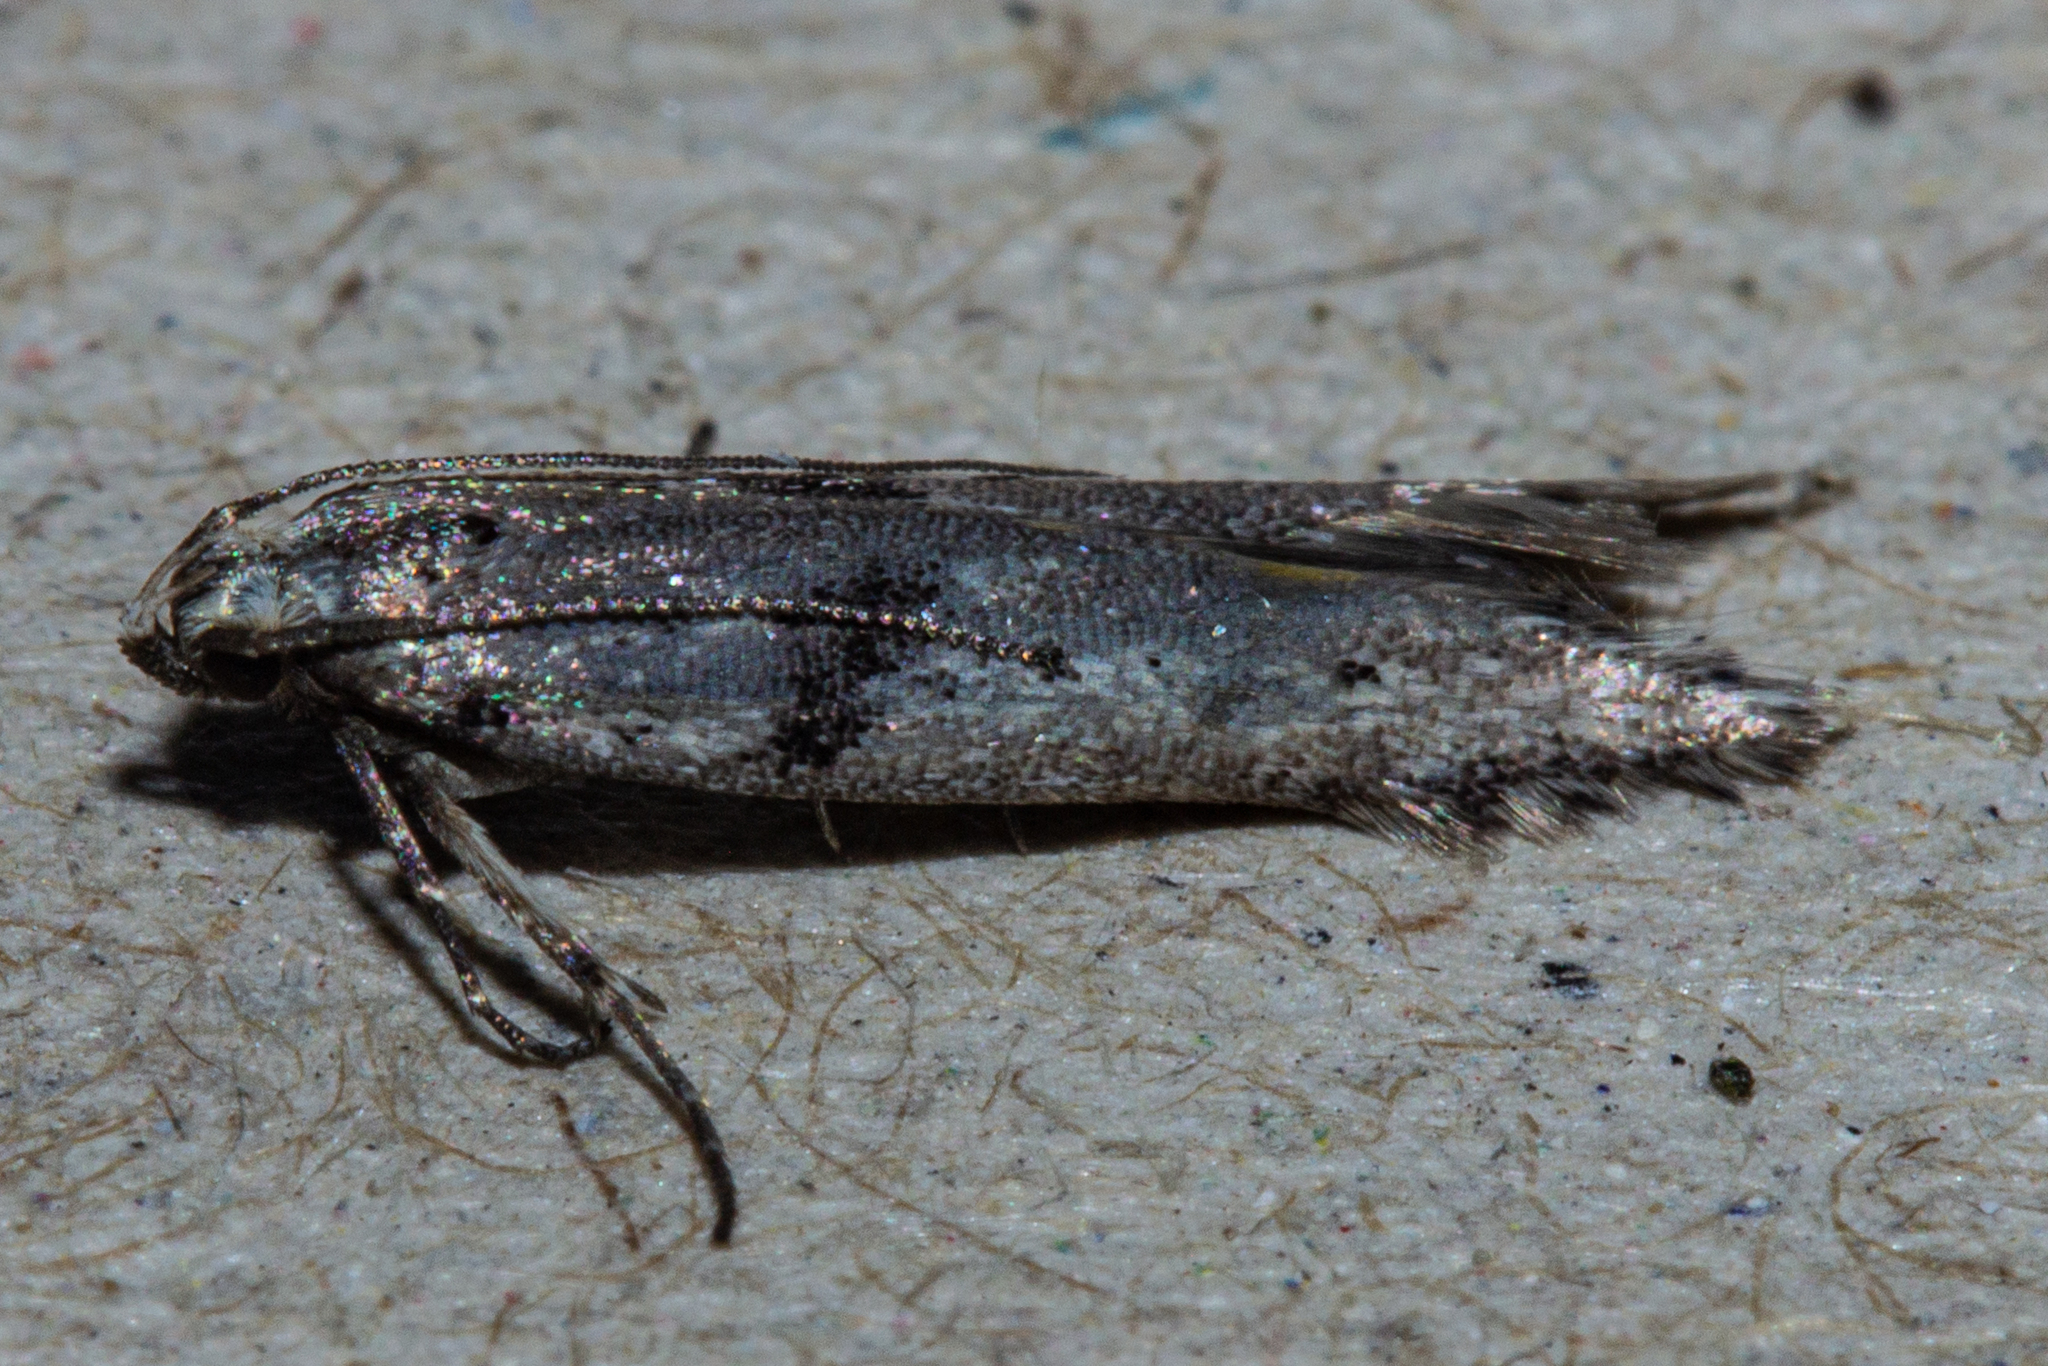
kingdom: Animalia
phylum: Arthropoda
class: Insecta
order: Lepidoptera
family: Gelechiidae
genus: Aristotelia
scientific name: Aristotelia paradesma
